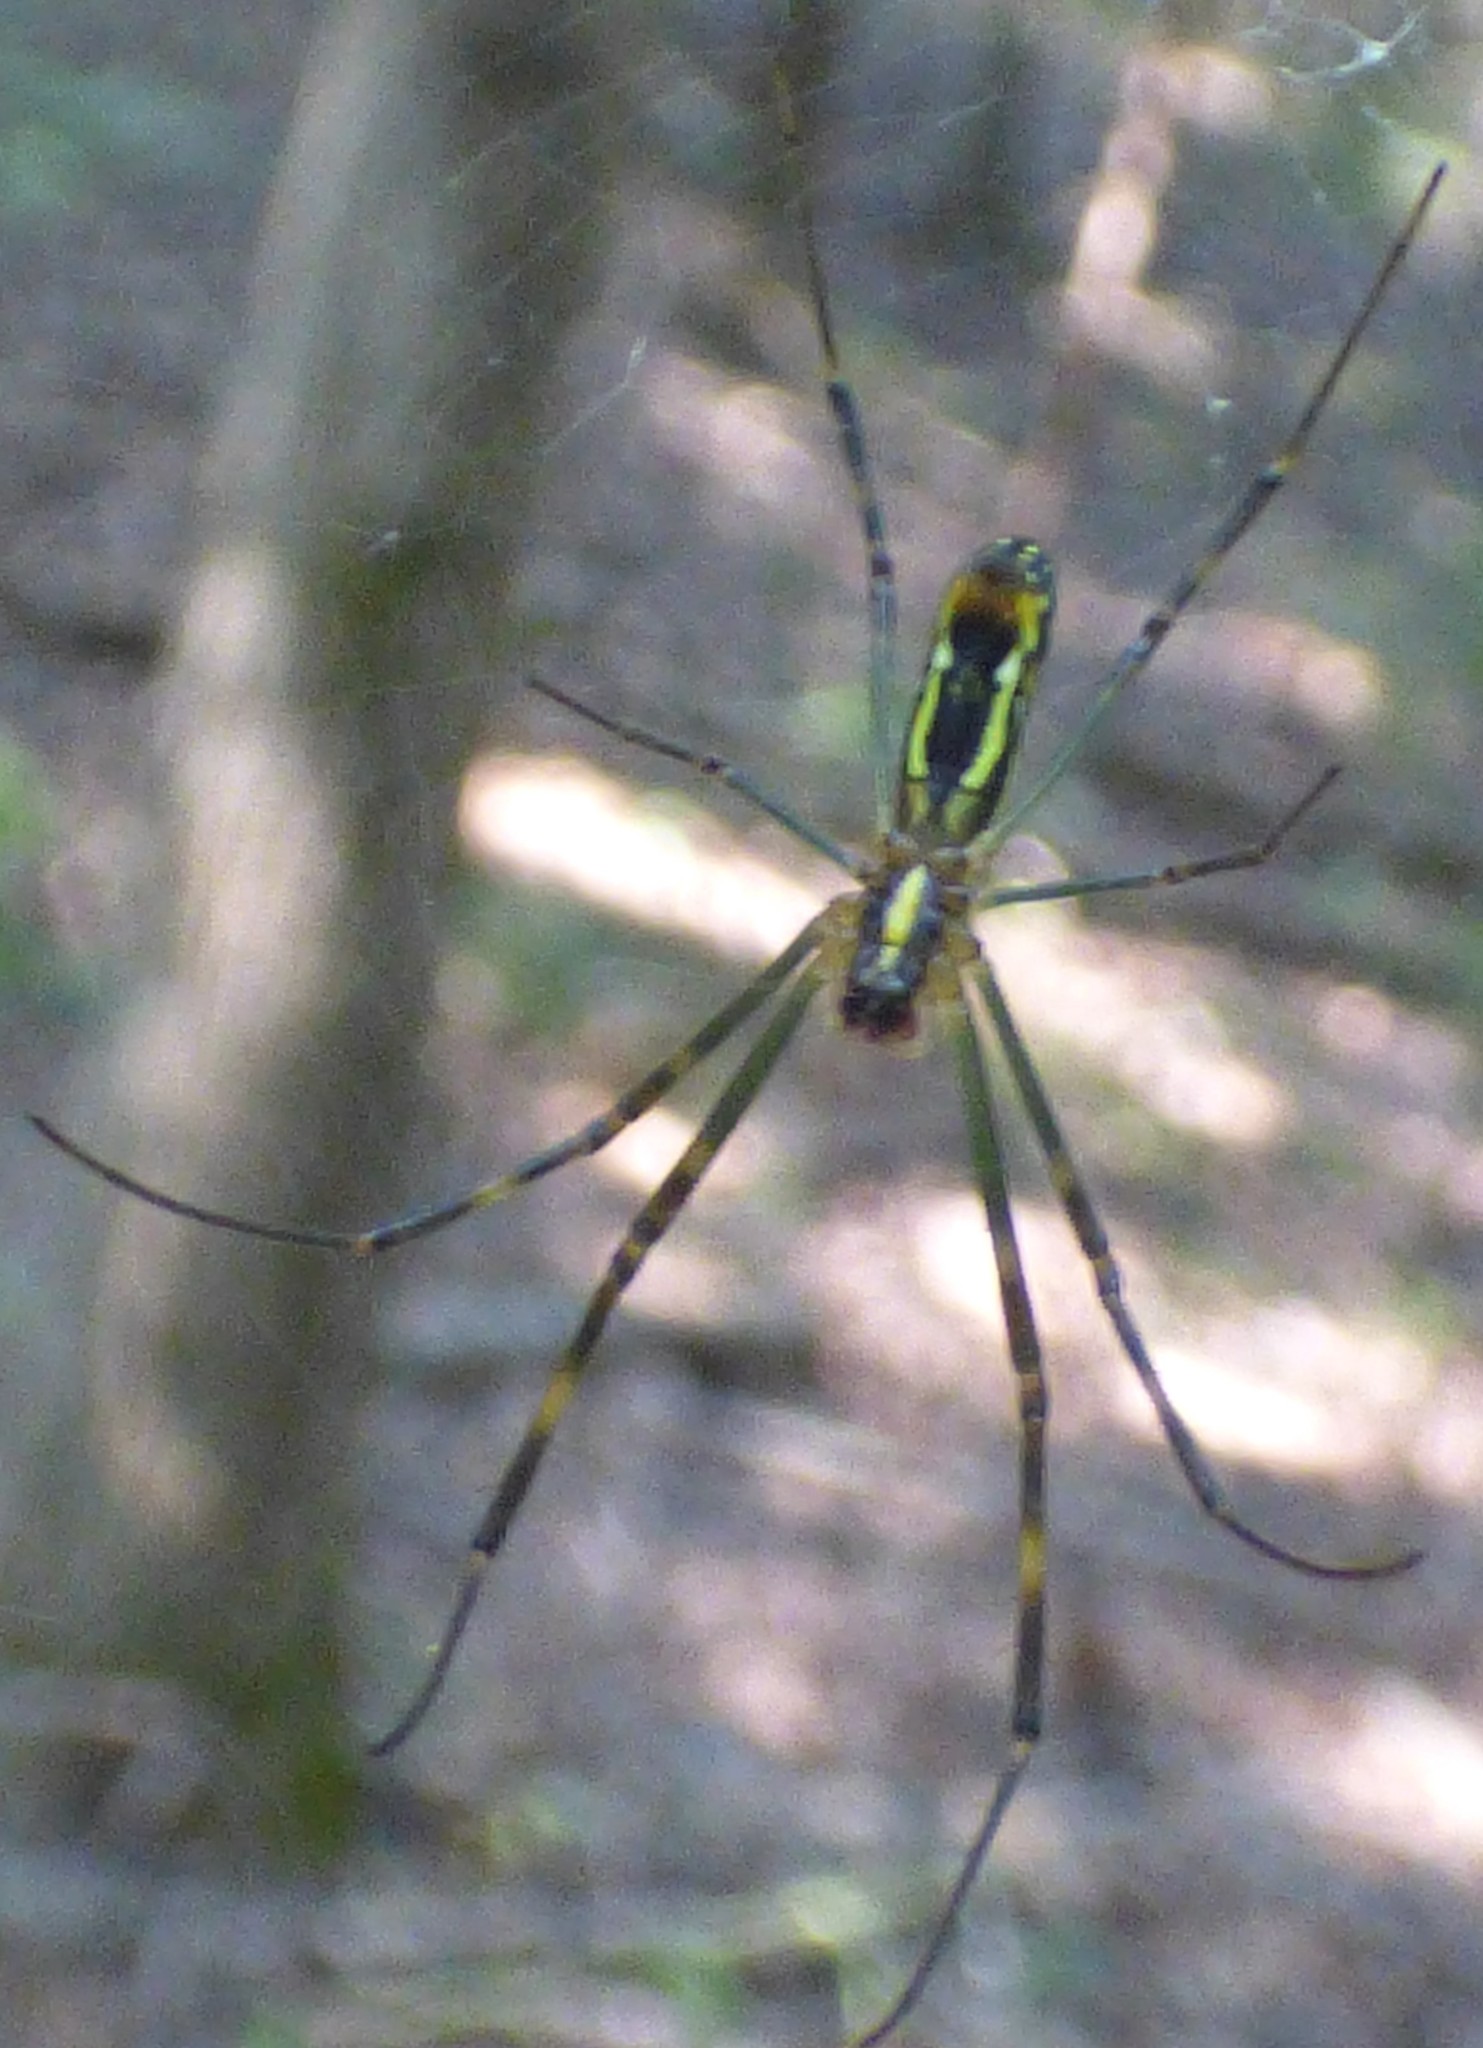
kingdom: Animalia
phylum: Arthropoda
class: Arachnida
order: Araneae
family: Araneidae
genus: Trichonephila
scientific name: Trichonephila clavata
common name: Jorō spider
